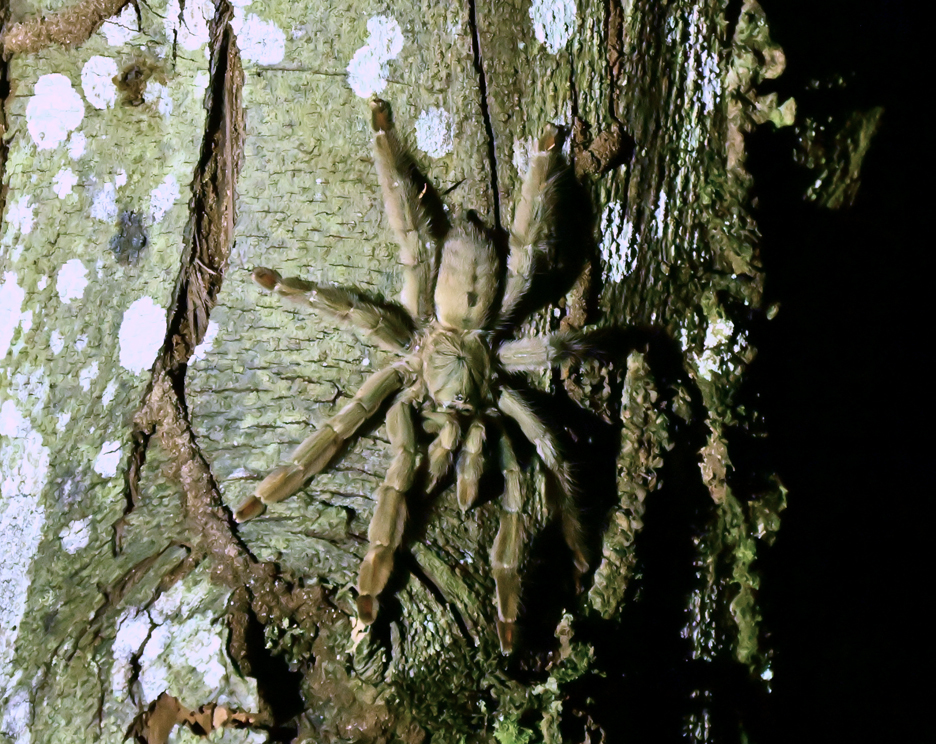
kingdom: Animalia
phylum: Arthropoda
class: Arachnida
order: Araneae
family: Theraphosidae
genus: Psalmopoeus
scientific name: Psalmopoeus cambridgei
